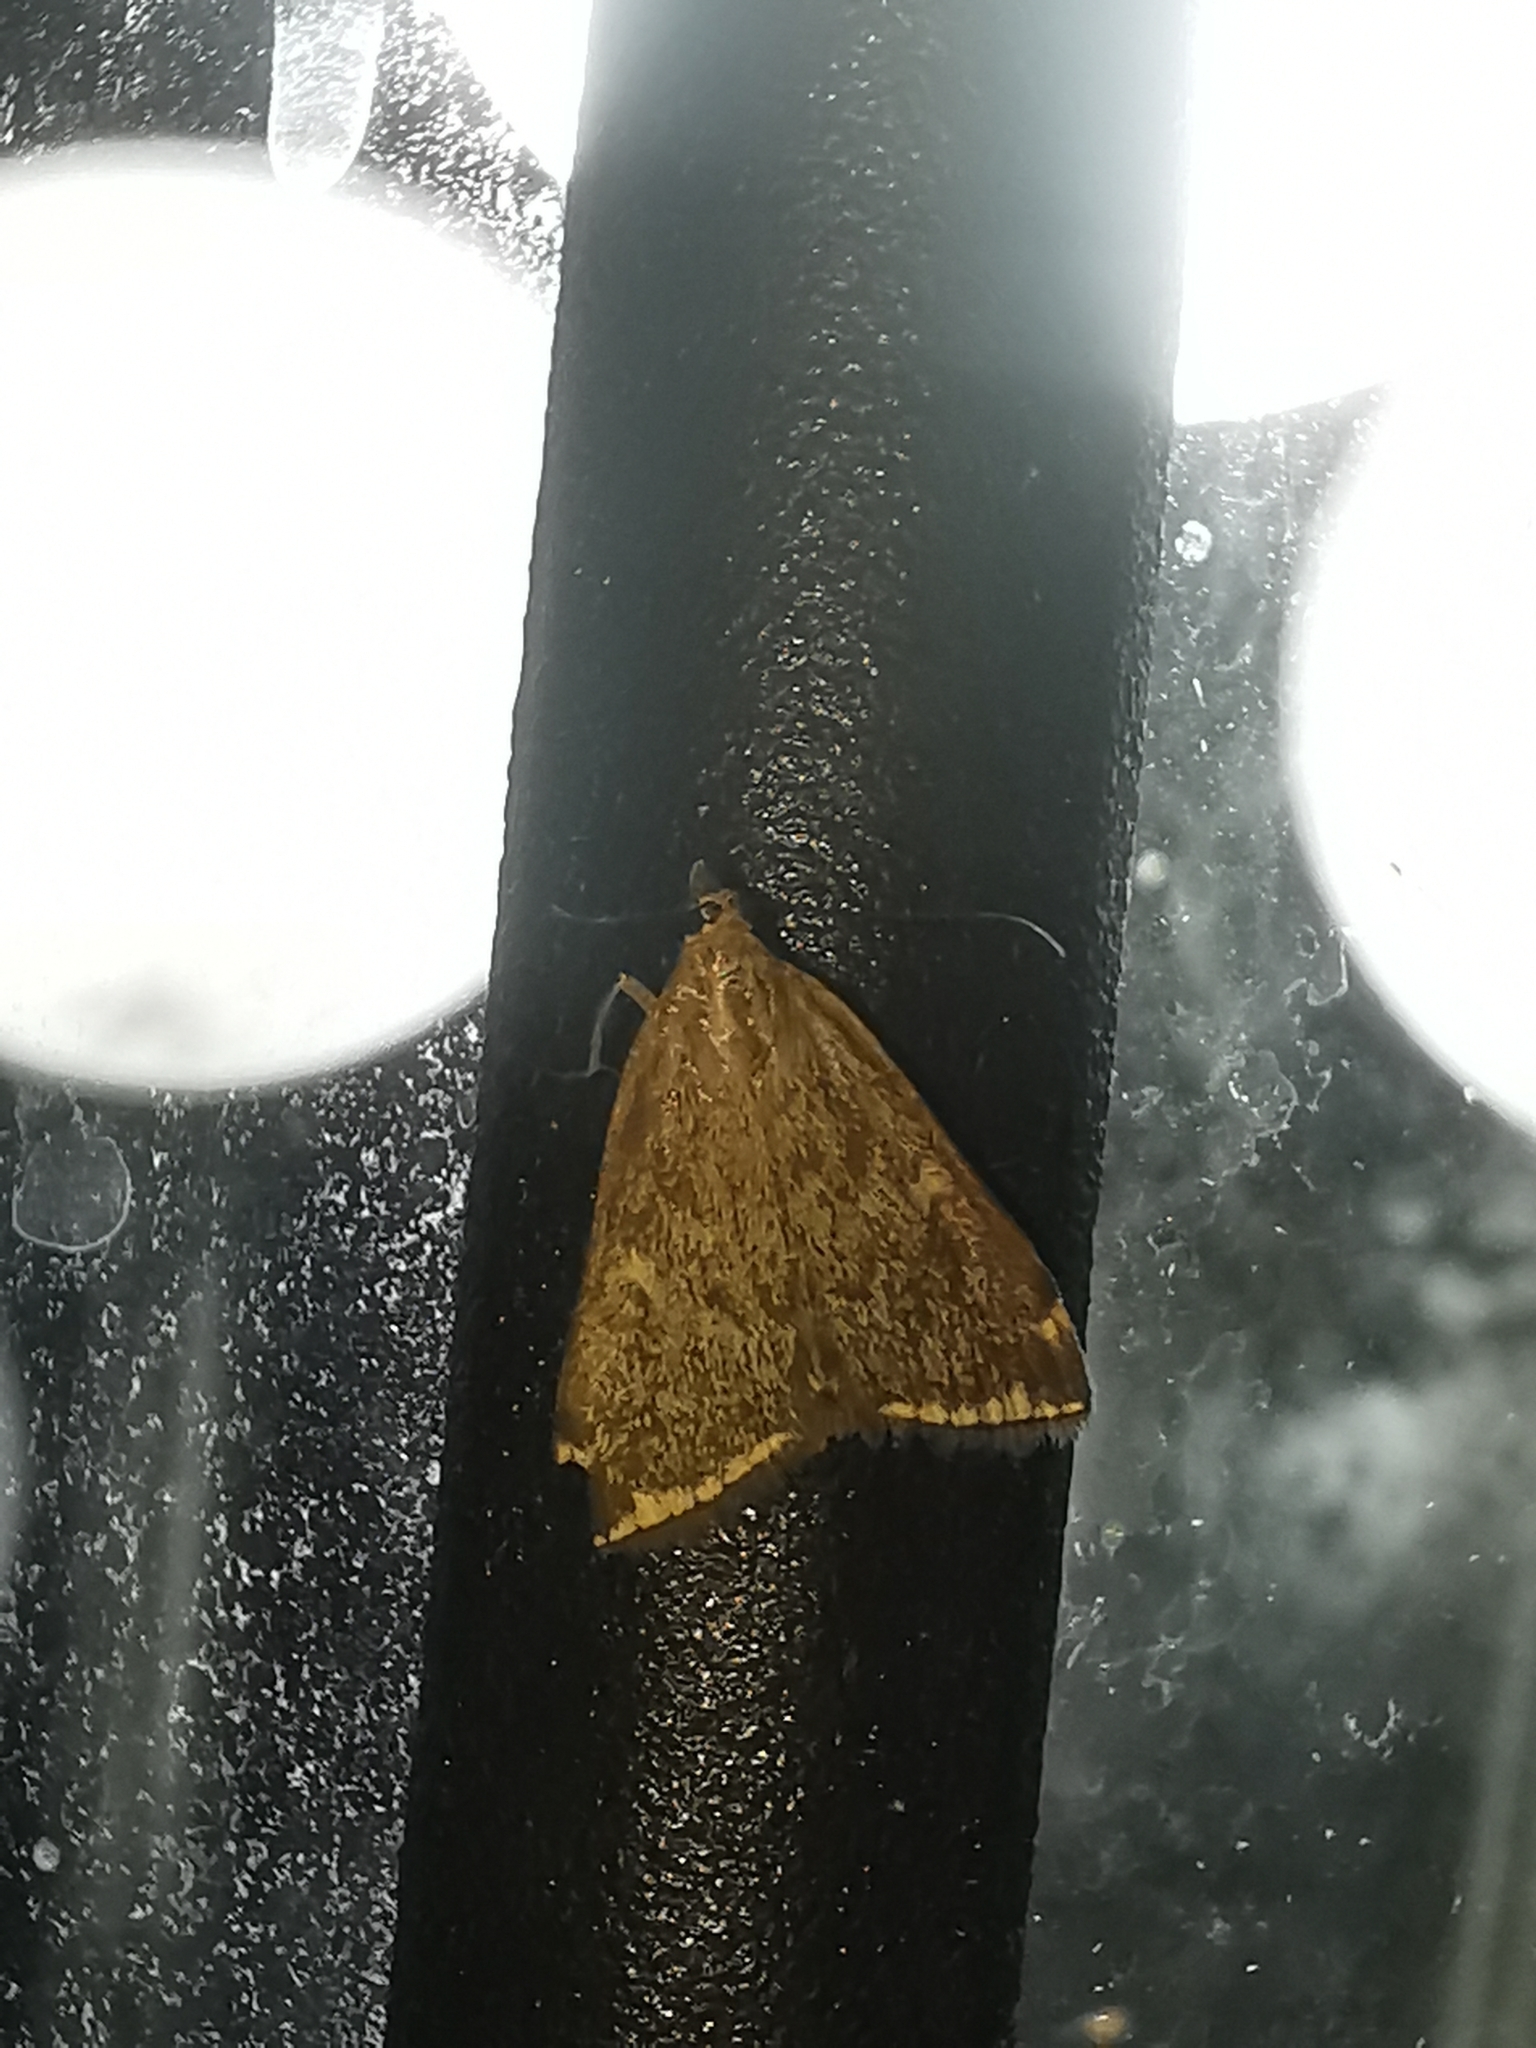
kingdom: Animalia
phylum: Arthropoda
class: Insecta
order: Lepidoptera
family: Crambidae
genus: Loxostege
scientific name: Loxostege sticticalis
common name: Crambid moth
